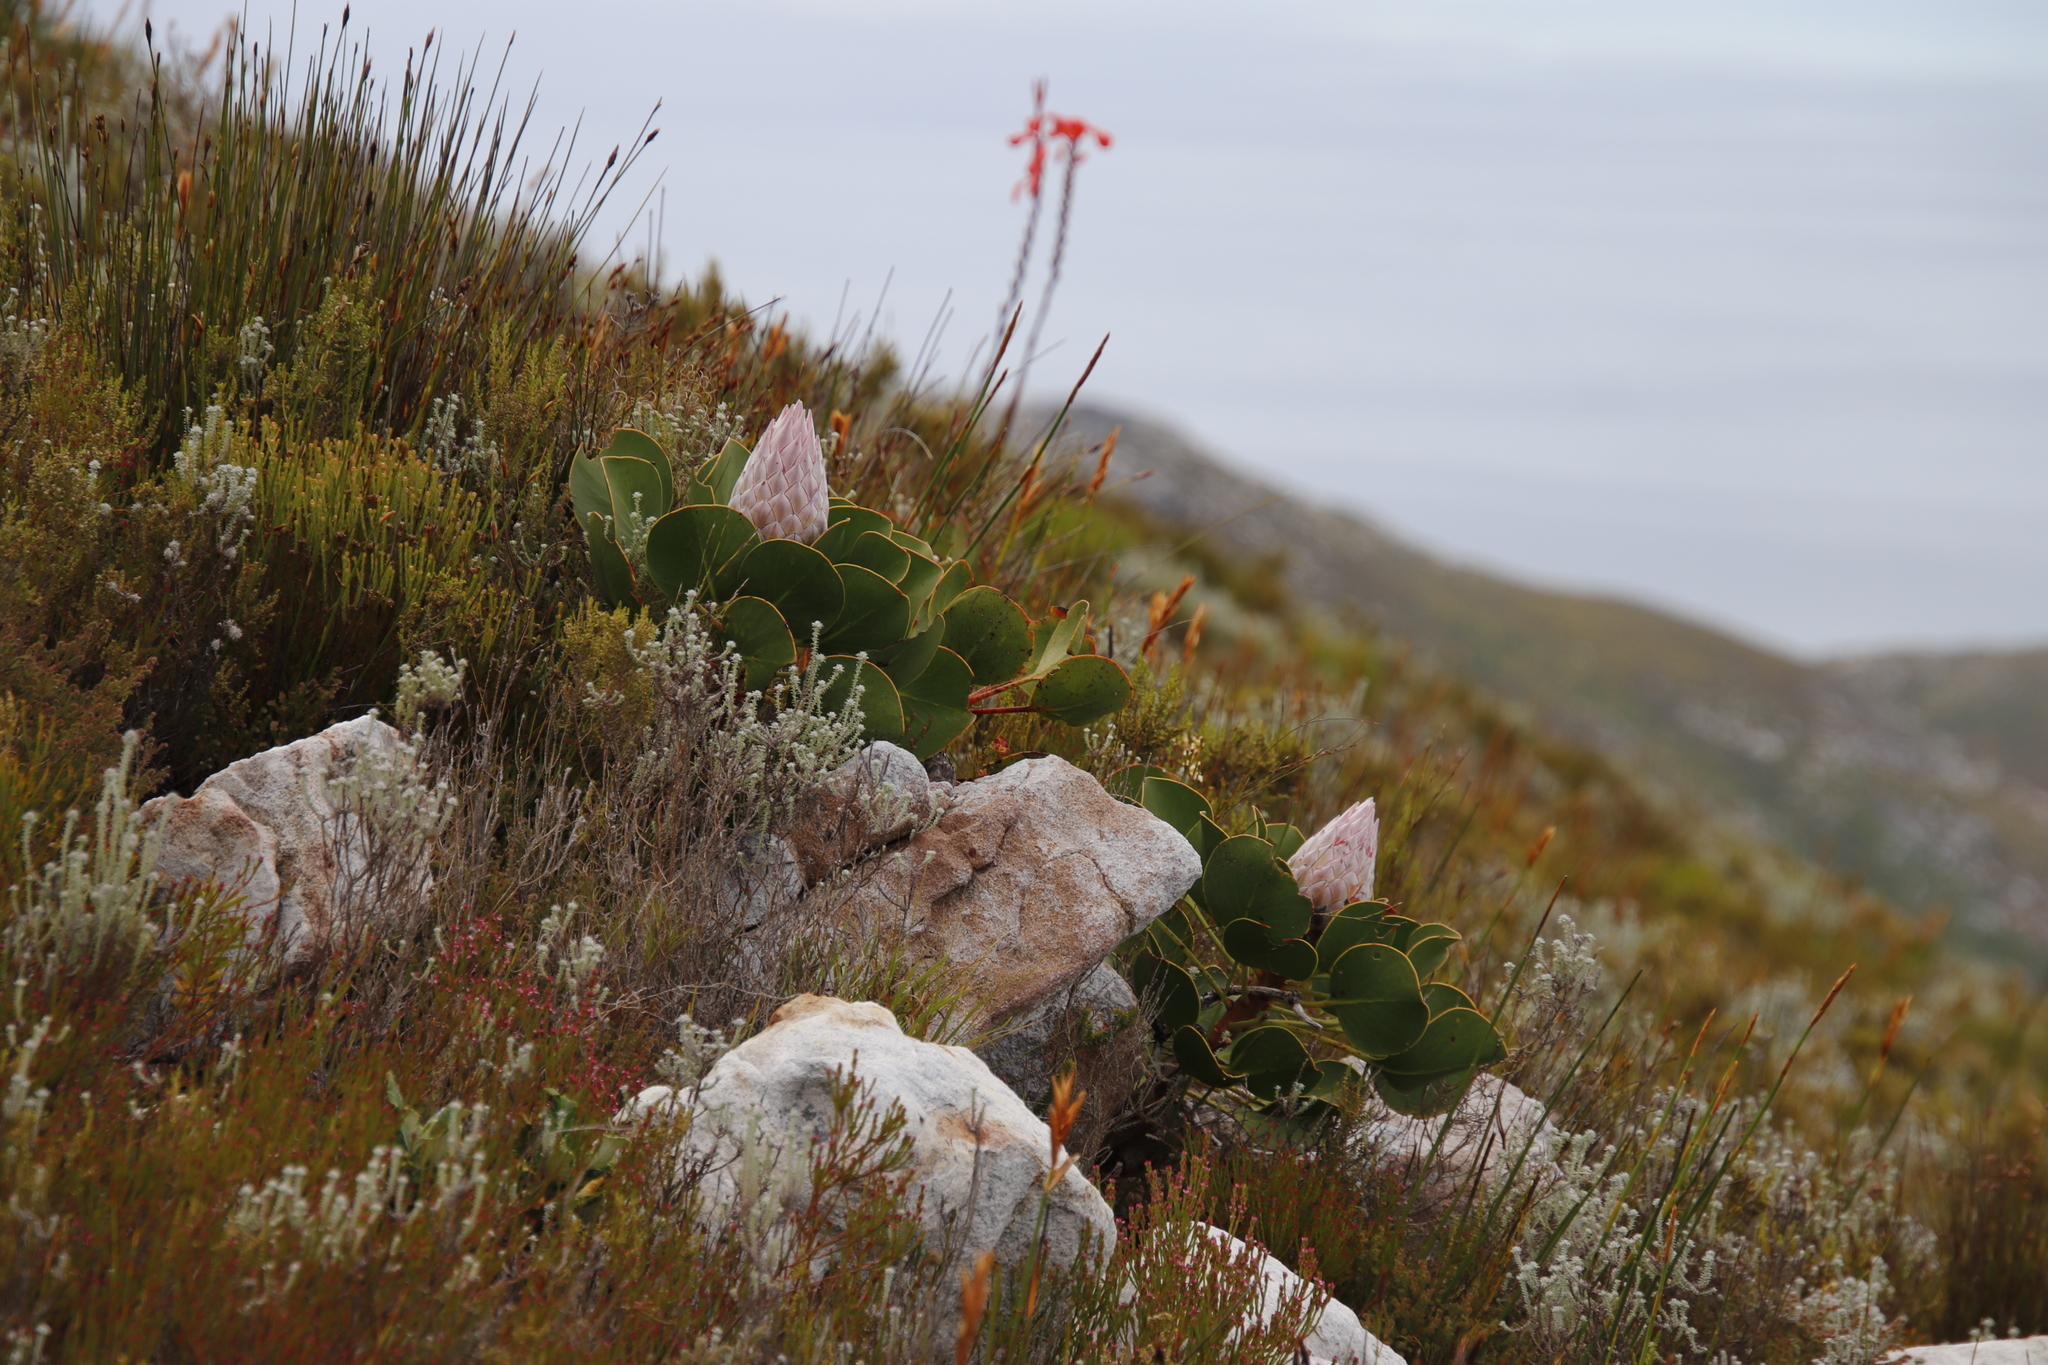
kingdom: Plantae
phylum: Tracheophyta
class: Magnoliopsida
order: Proteales
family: Proteaceae
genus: Protea
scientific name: Protea cynaroides
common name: King protea
